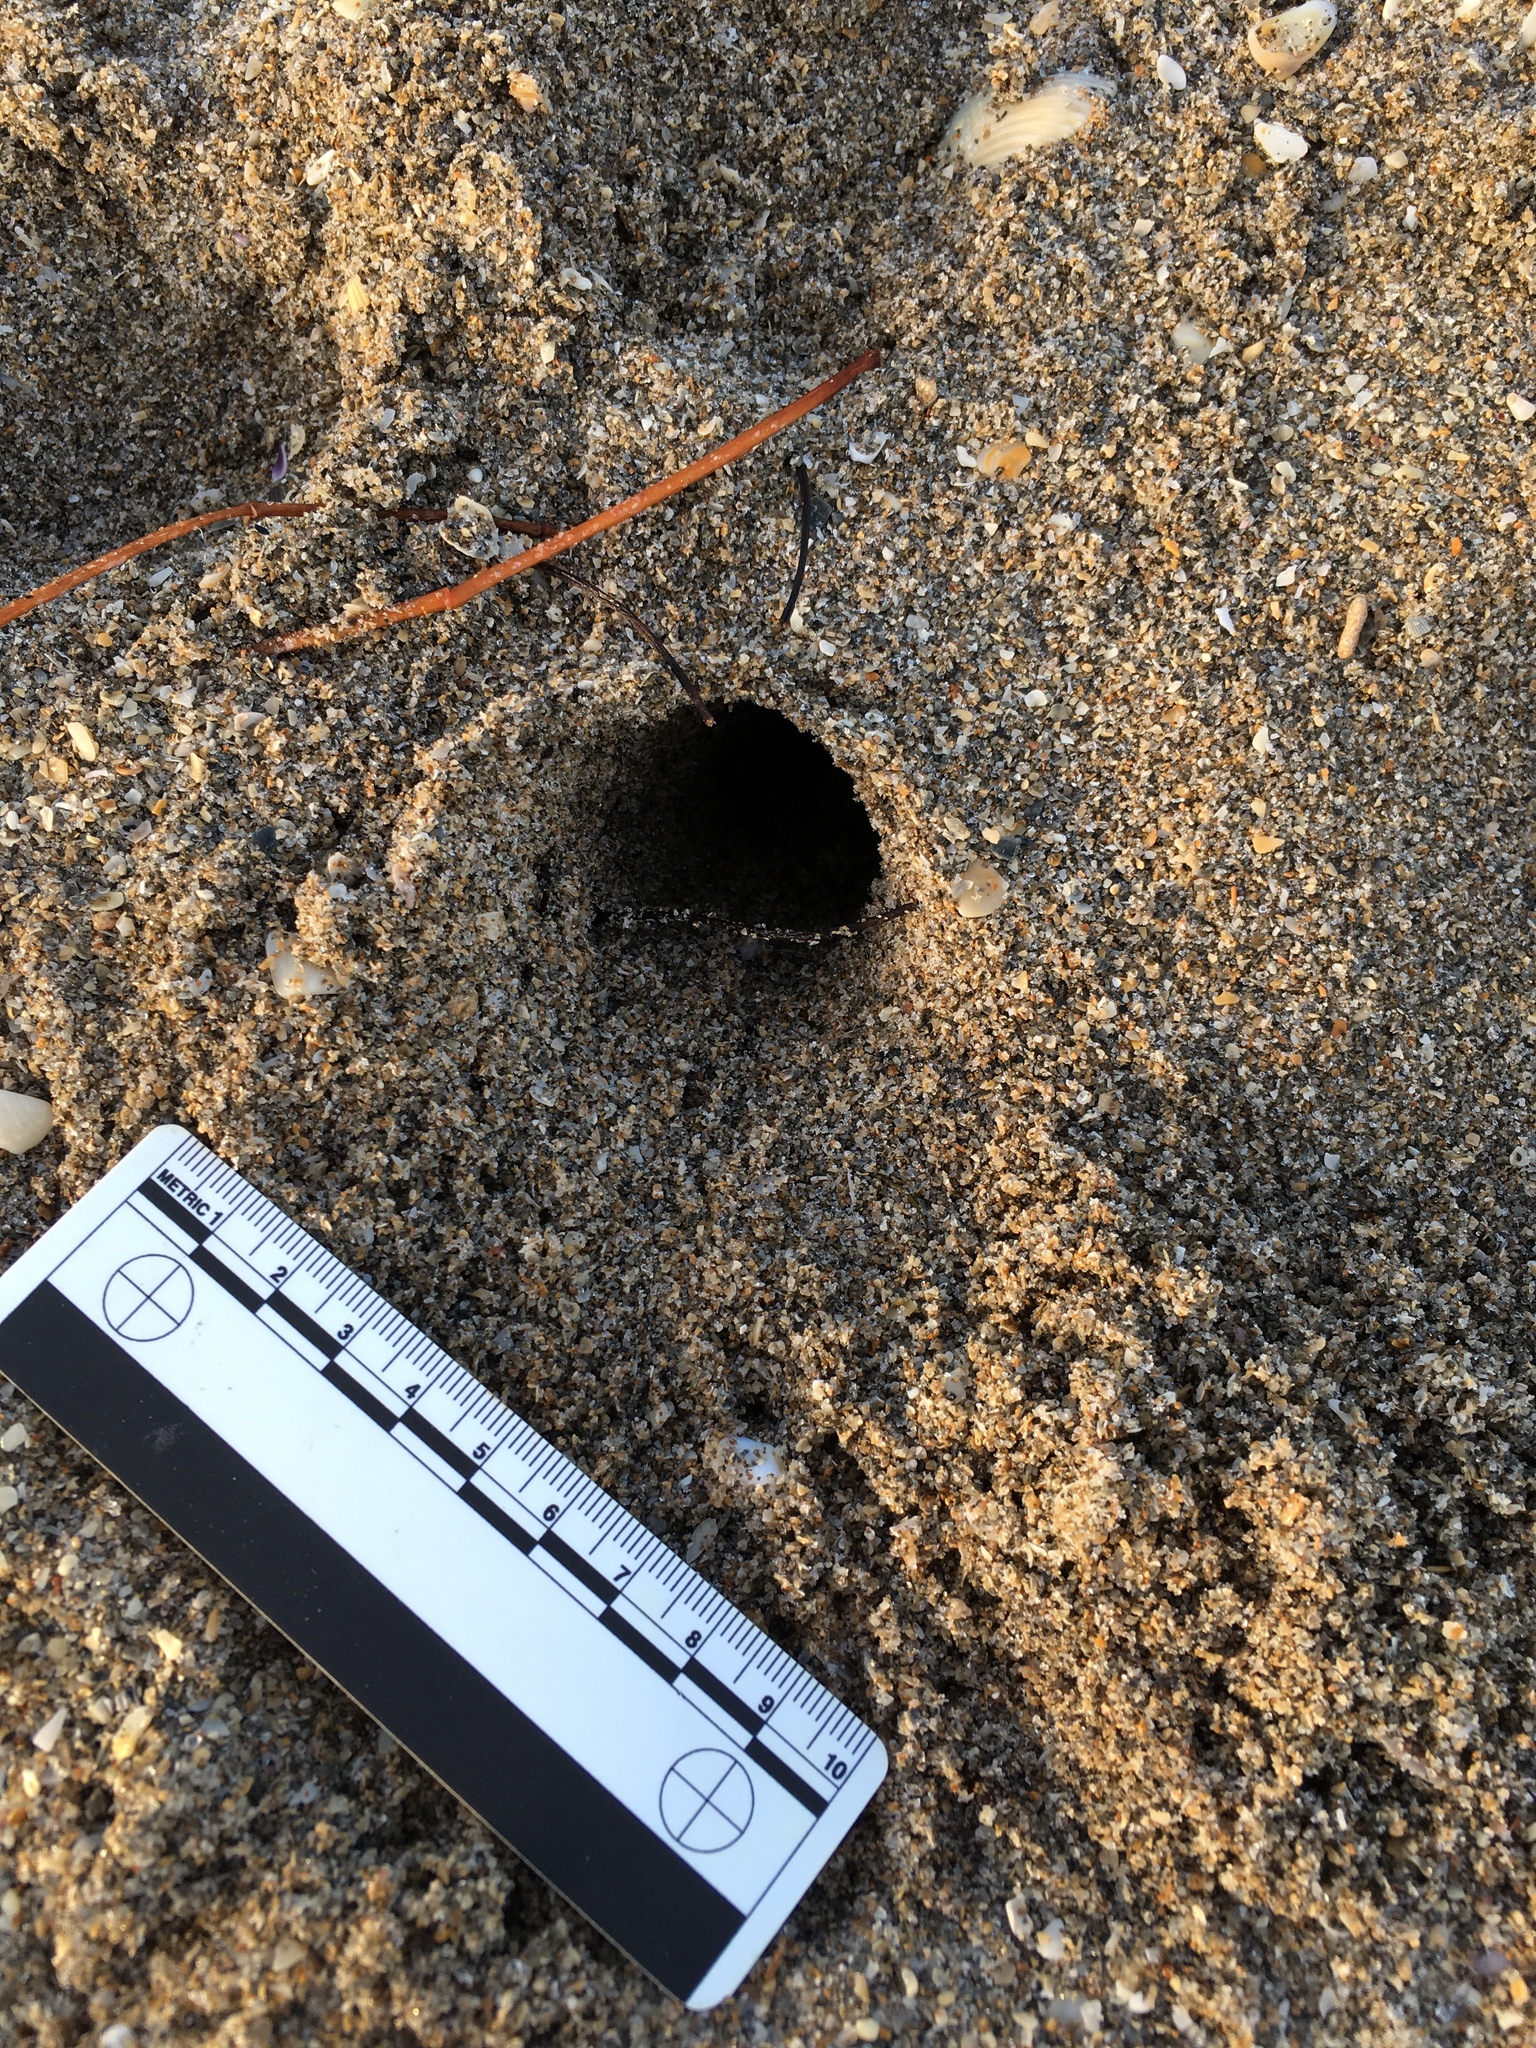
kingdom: Animalia
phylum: Arthropoda
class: Malacostraca
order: Decapoda
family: Ocypodidae
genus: Ocypode
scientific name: Ocypode quadrata
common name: Ghost crab
